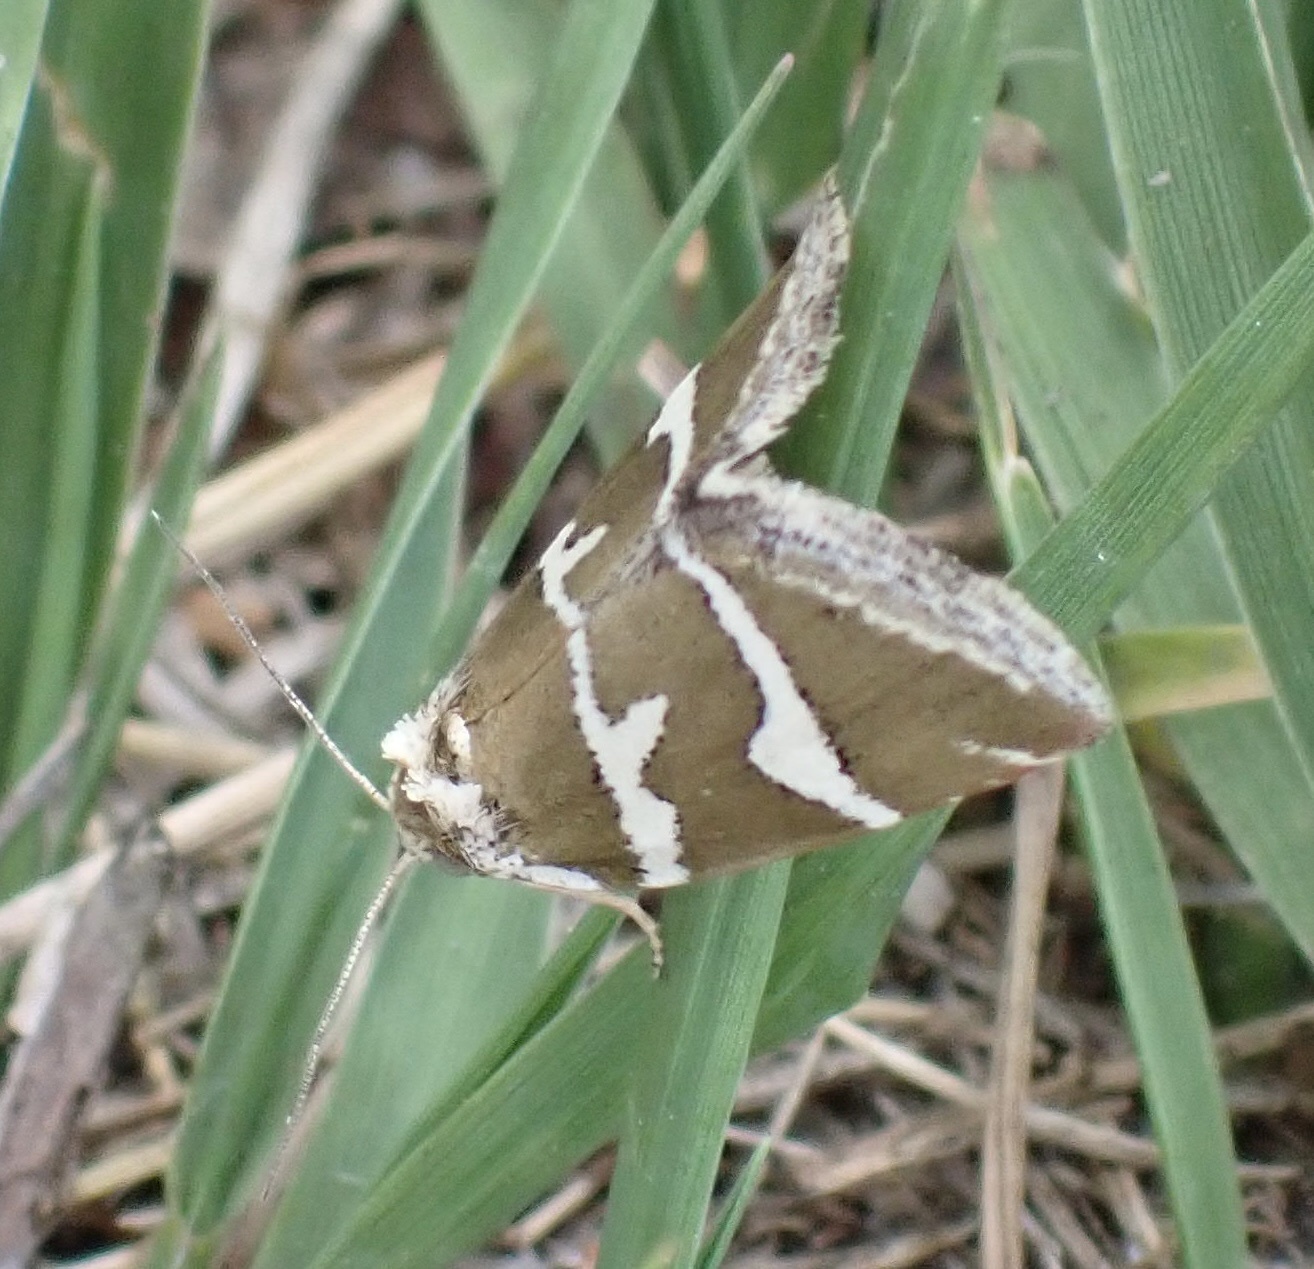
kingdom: Animalia
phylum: Arthropoda
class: Insecta
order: Lepidoptera
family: Noctuidae
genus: Deltote
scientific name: Deltote bankiana
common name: Silver barred
